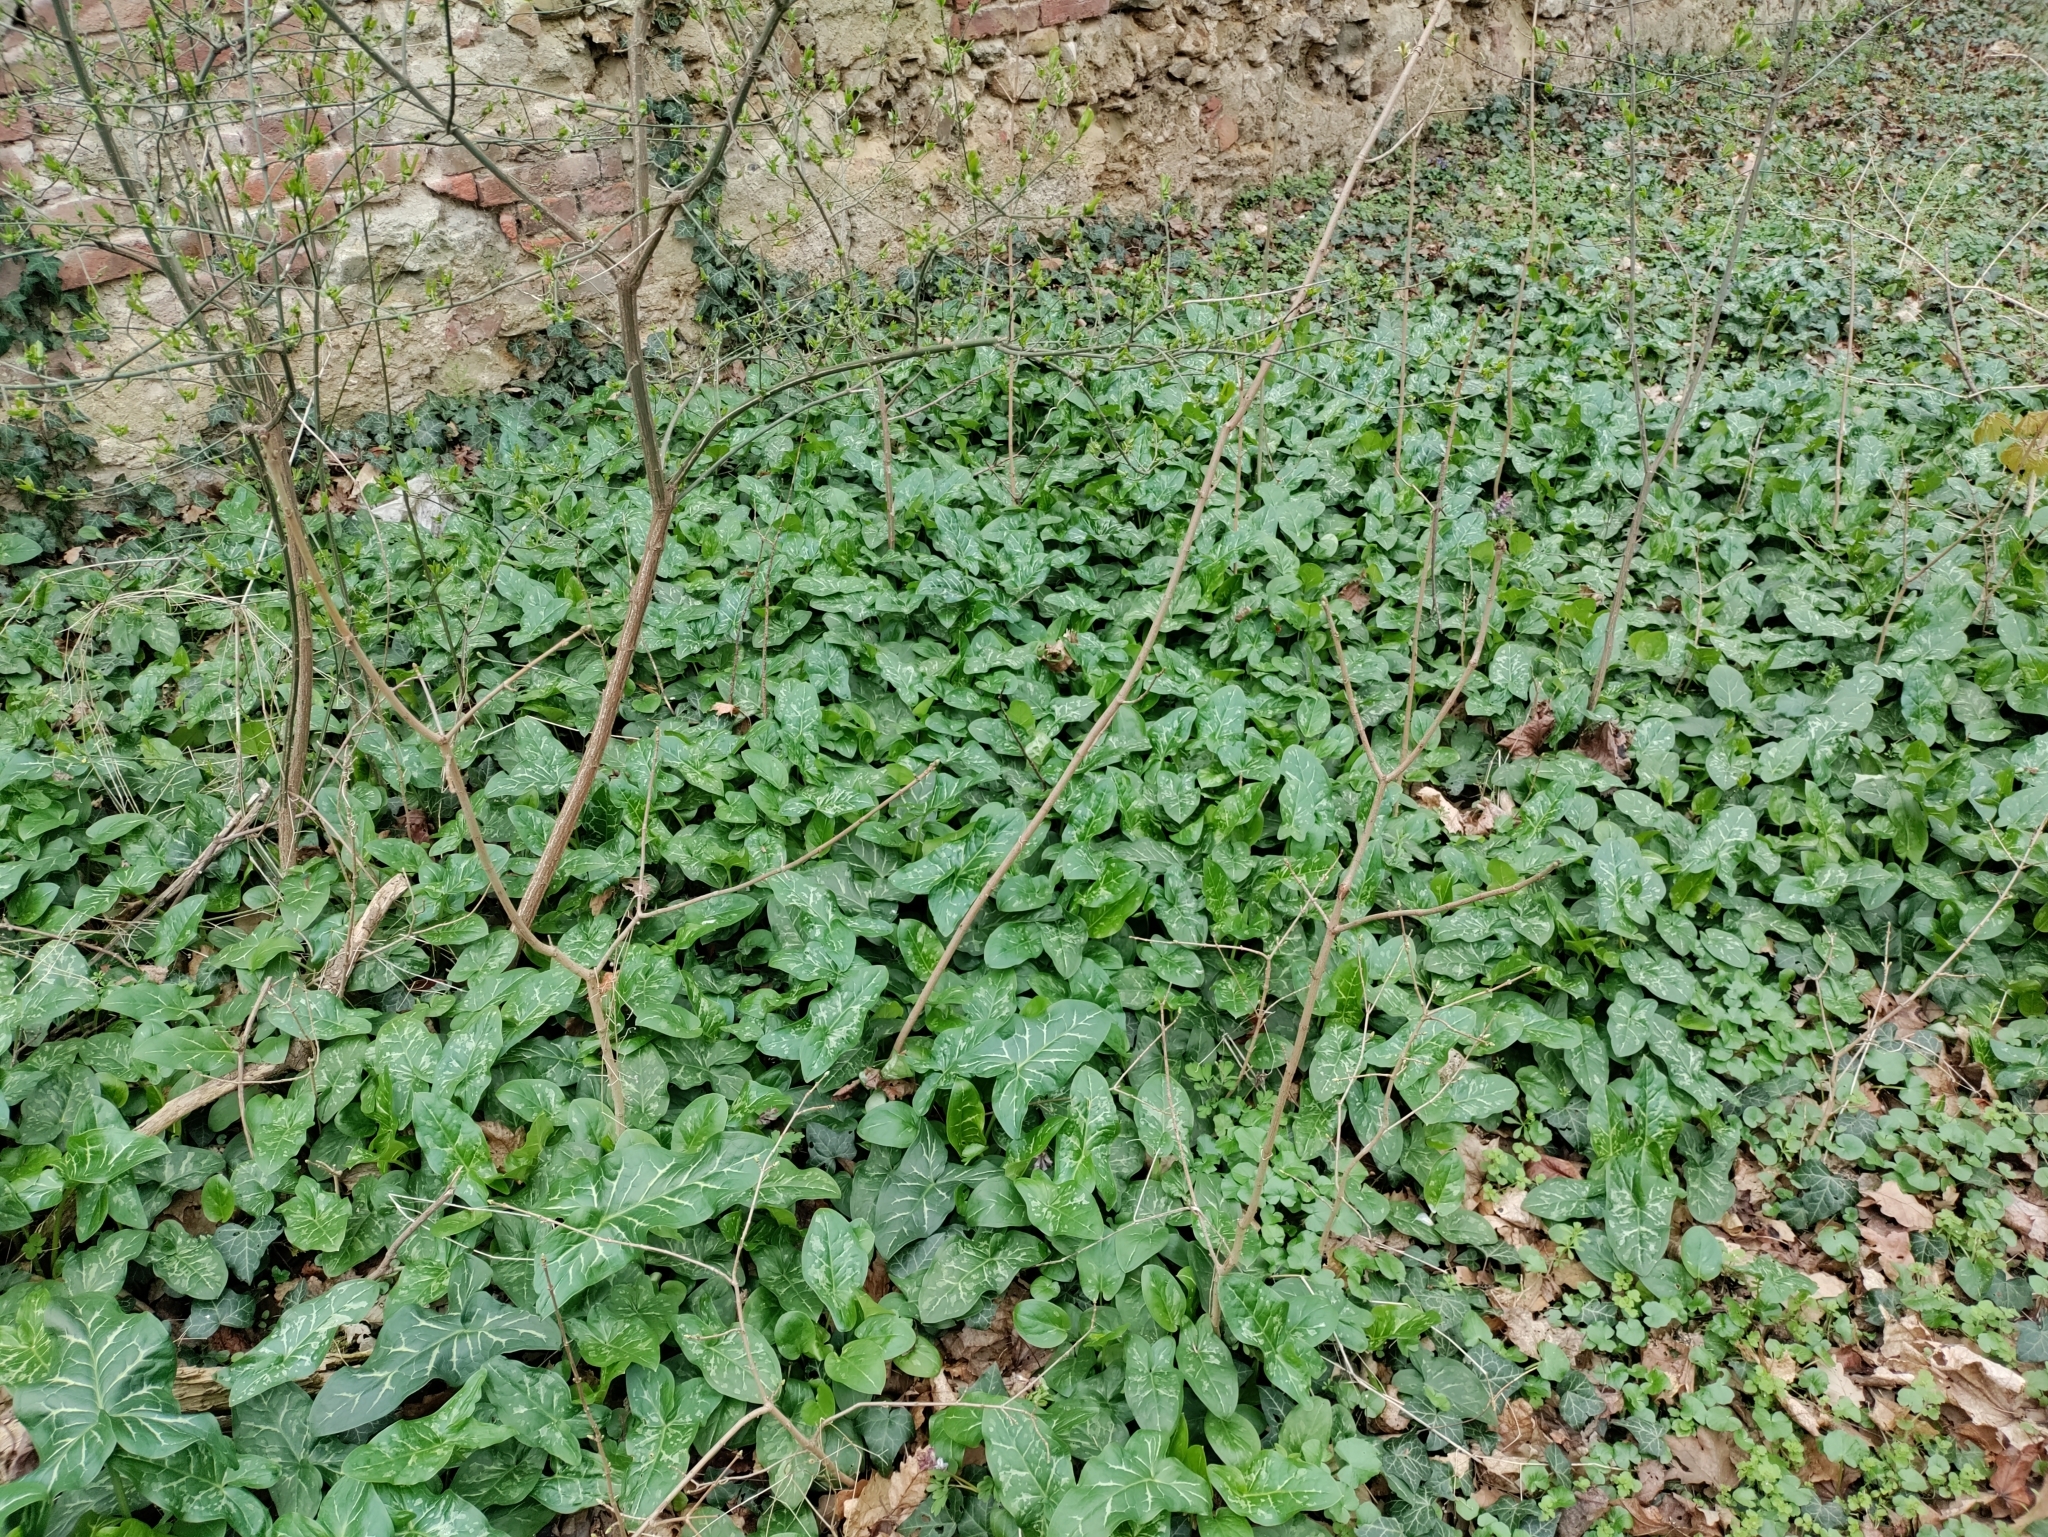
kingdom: Plantae
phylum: Tracheophyta
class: Liliopsida
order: Alismatales
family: Araceae
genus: Arum
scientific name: Arum italicum
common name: Italian lords-and-ladies
